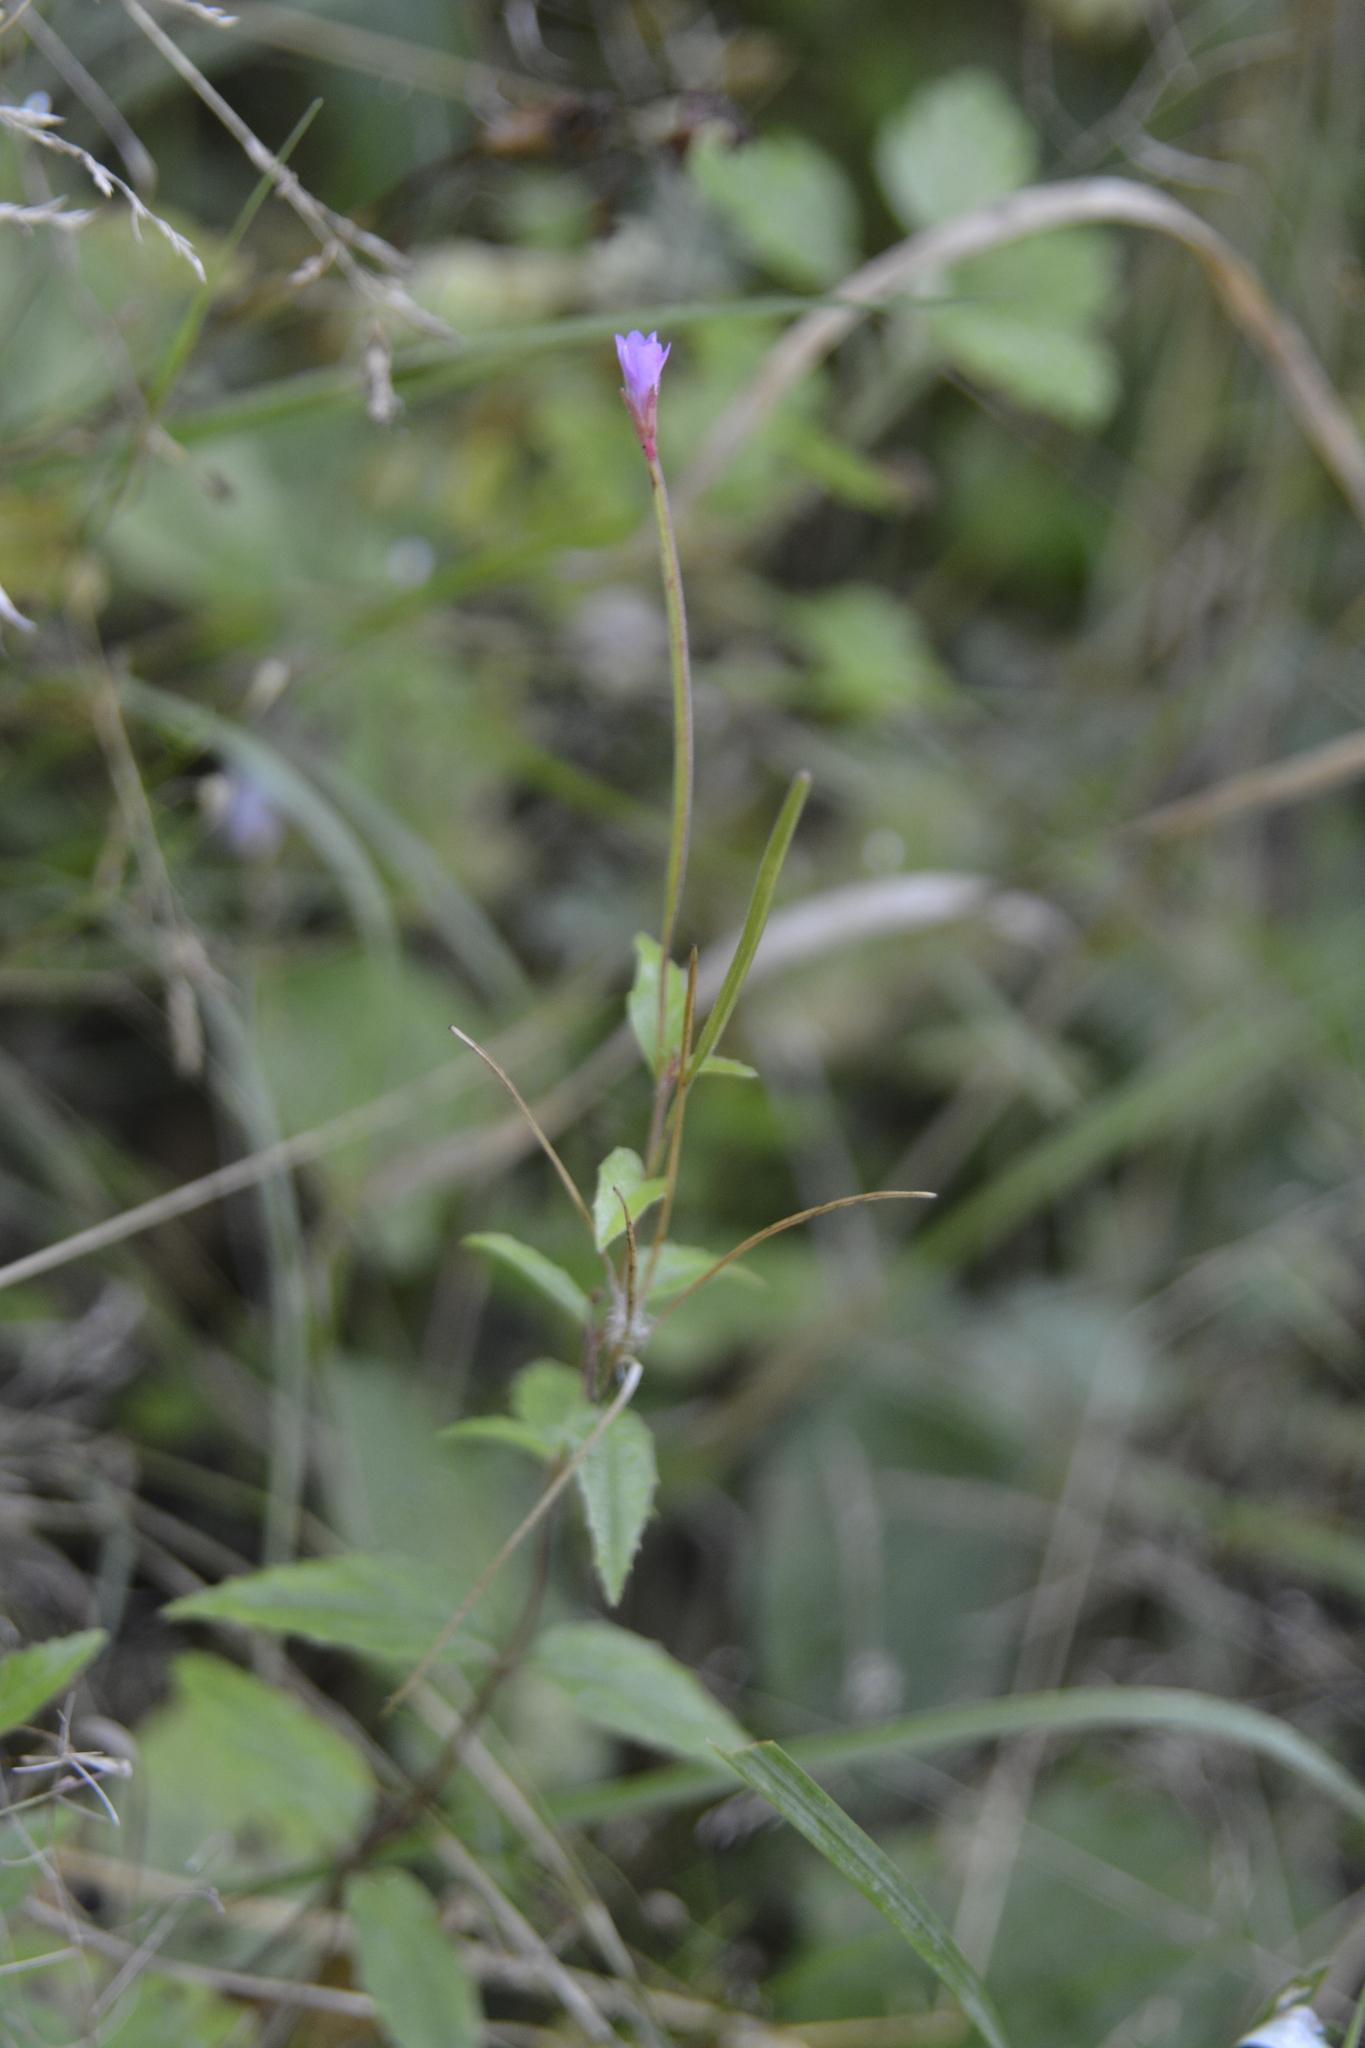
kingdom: Plantae
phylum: Tracheophyta
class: Magnoliopsida
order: Myrtales
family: Onagraceae
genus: Epilobium
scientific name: Epilobium montanum
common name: Broad-leaved willowherb
